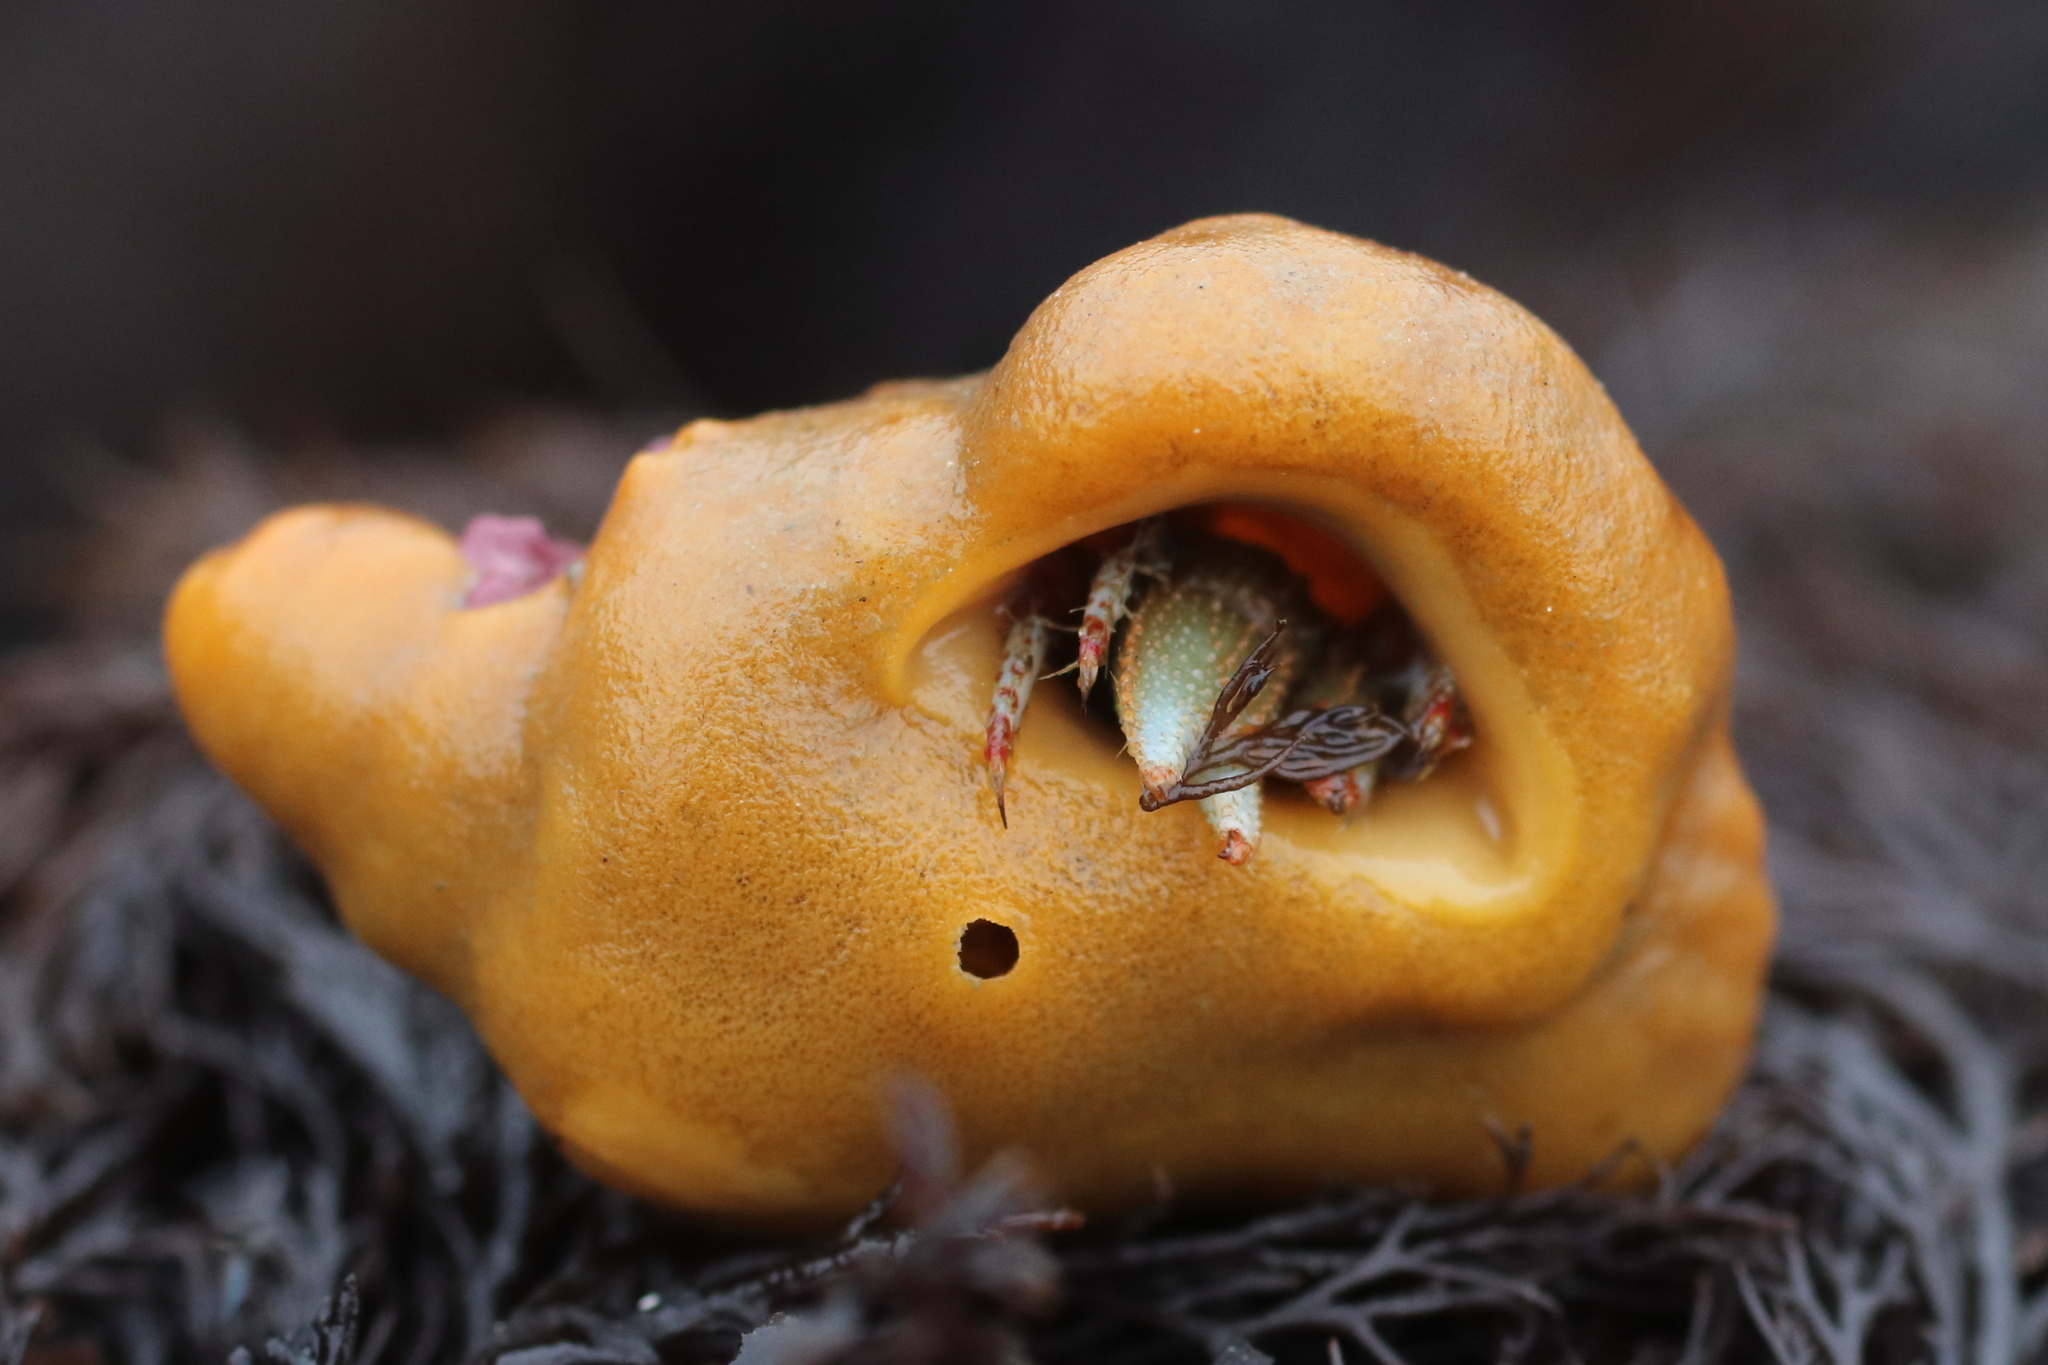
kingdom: Animalia
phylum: Porifera
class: Demospongiae
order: Suberitida
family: Suberitidae
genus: Suberites
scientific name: Suberites latus
